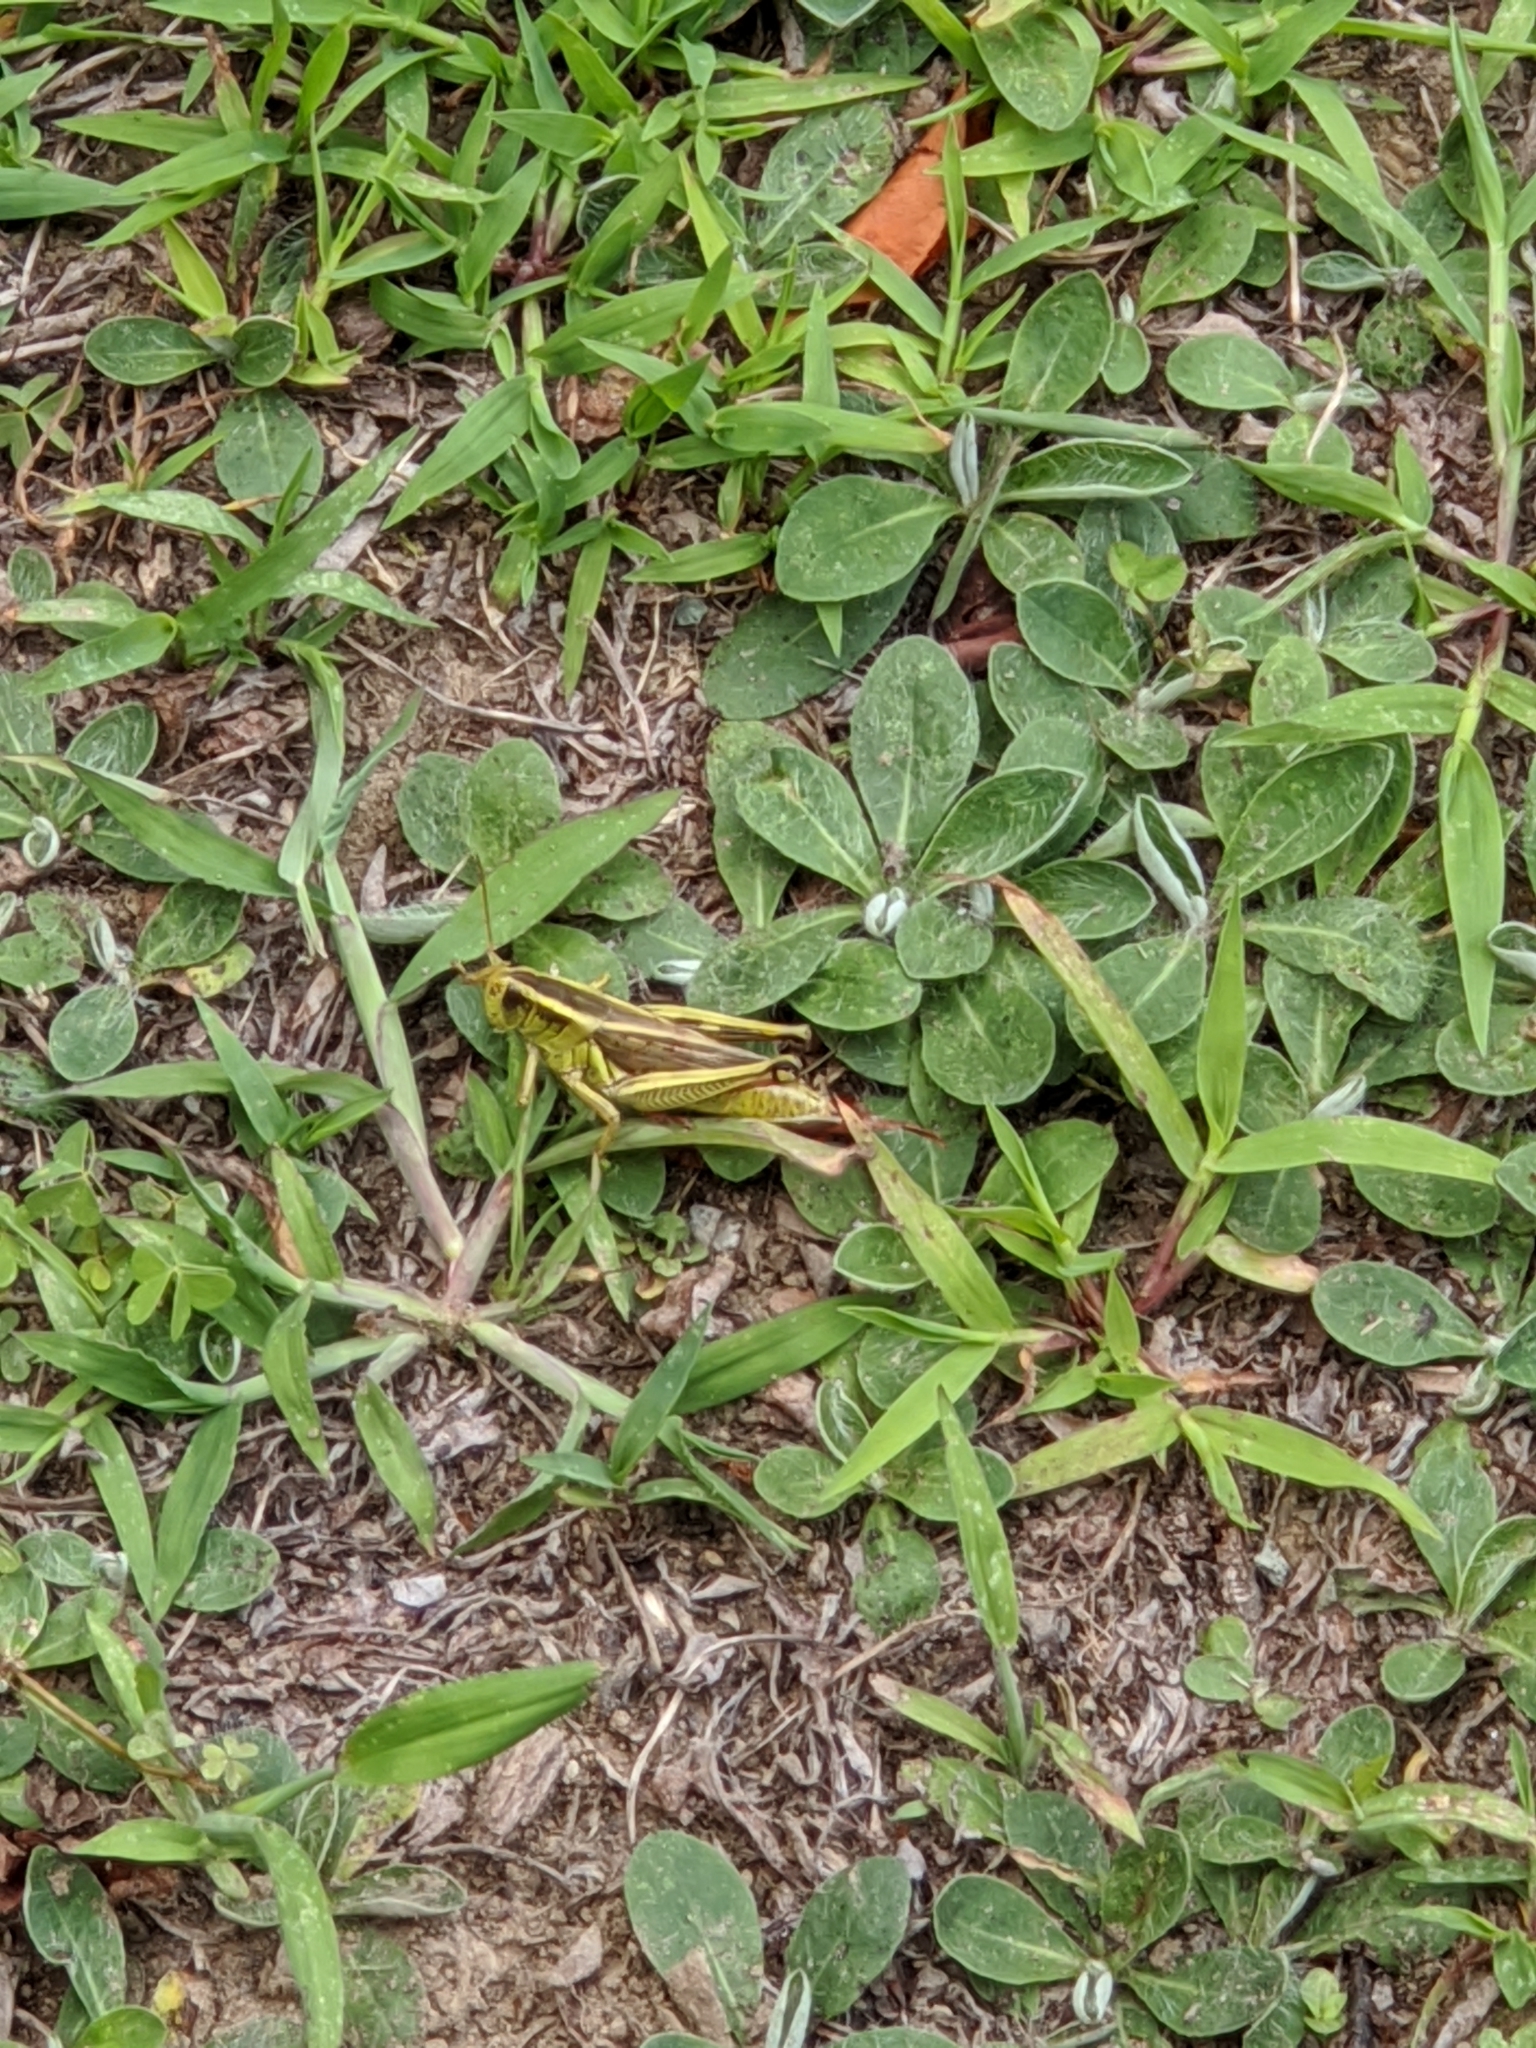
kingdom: Animalia
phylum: Arthropoda
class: Insecta
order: Orthoptera
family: Acrididae
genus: Melanoplus
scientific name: Melanoplus bivittatus
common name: Two-striped grasshopper
